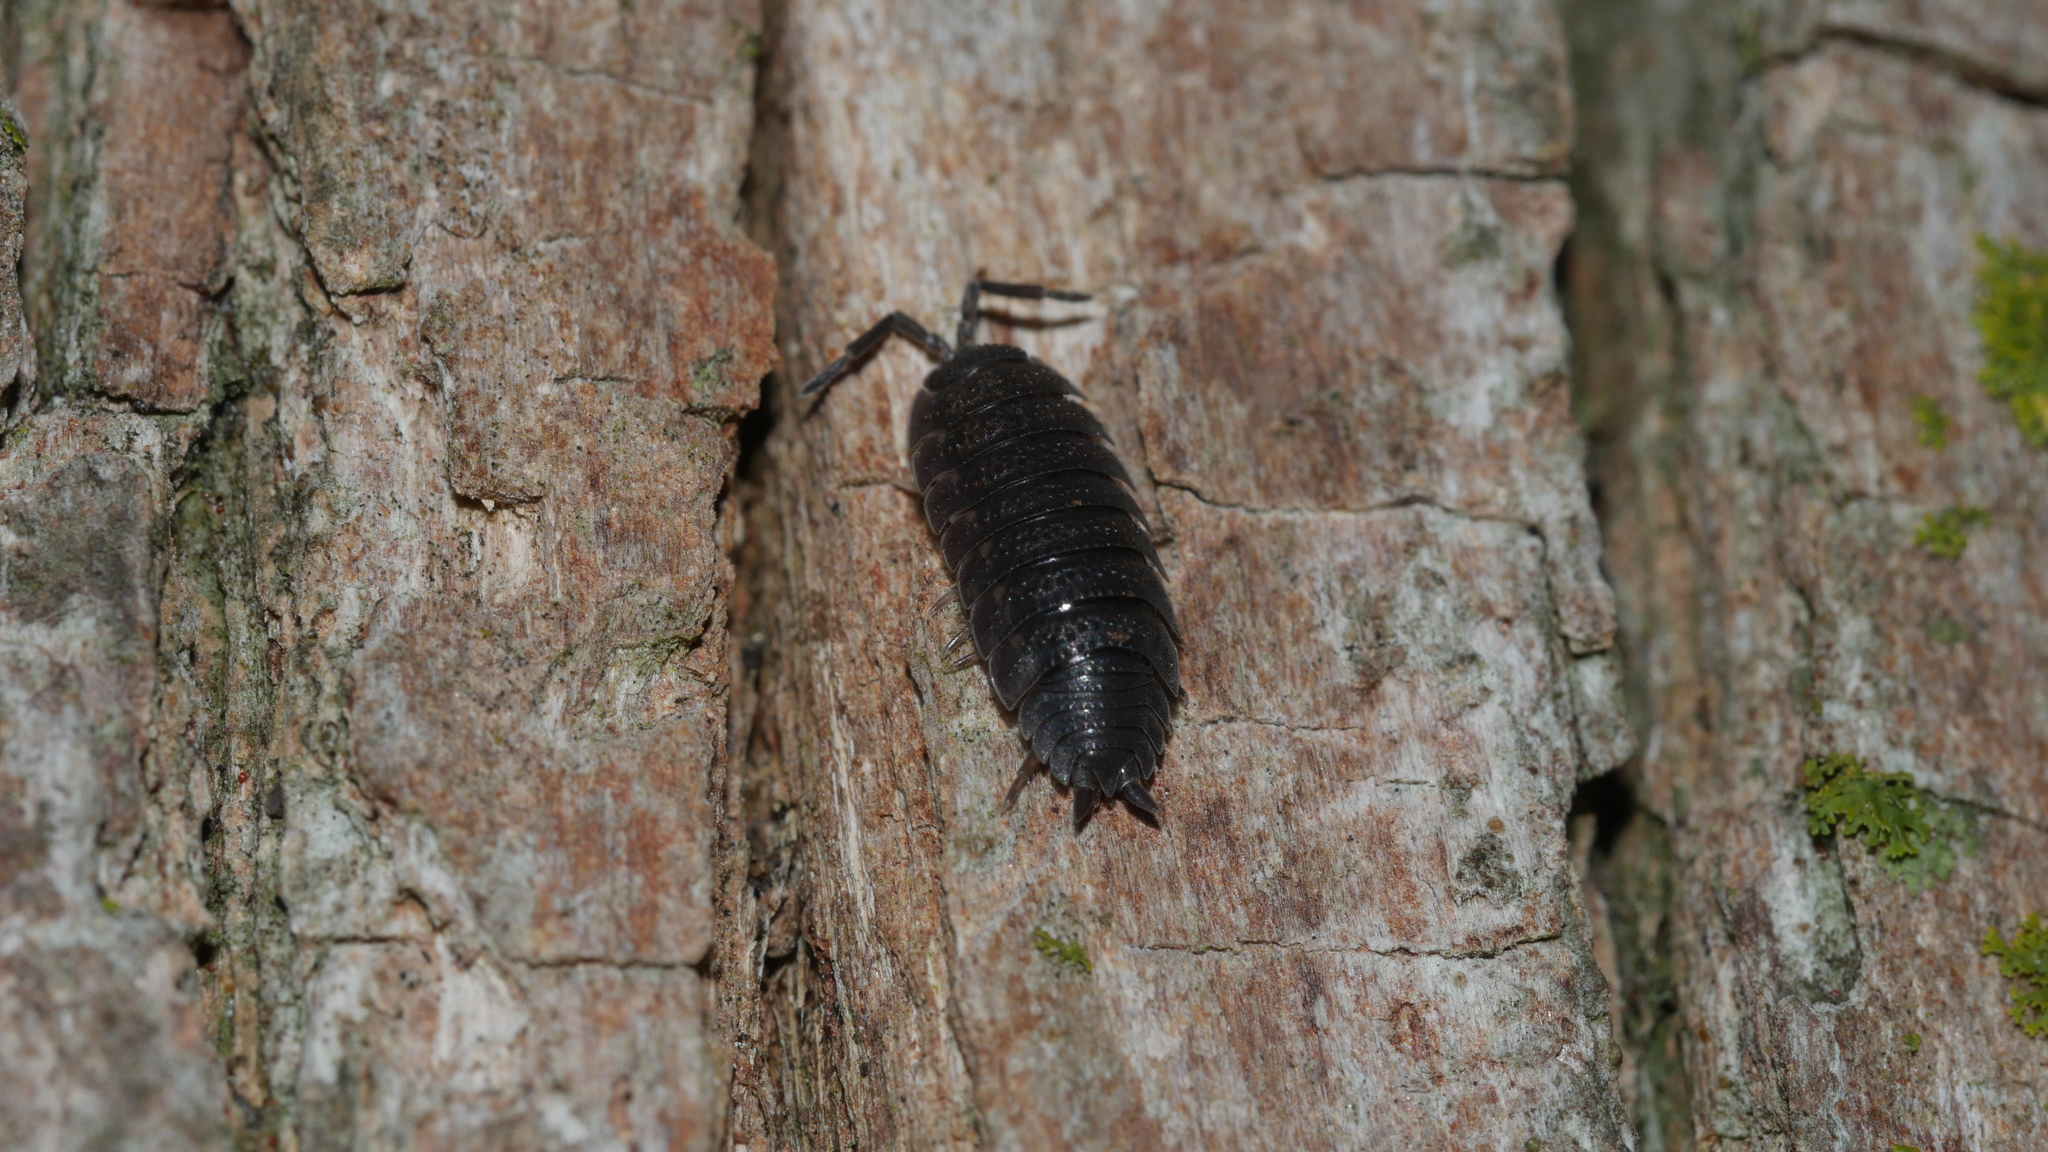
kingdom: Animalia
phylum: Arthropoda
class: Malacostraca
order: Isopoda
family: Porcellionidae
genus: Porcellio
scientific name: Porcellio scaber
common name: Common rough woodlouse
